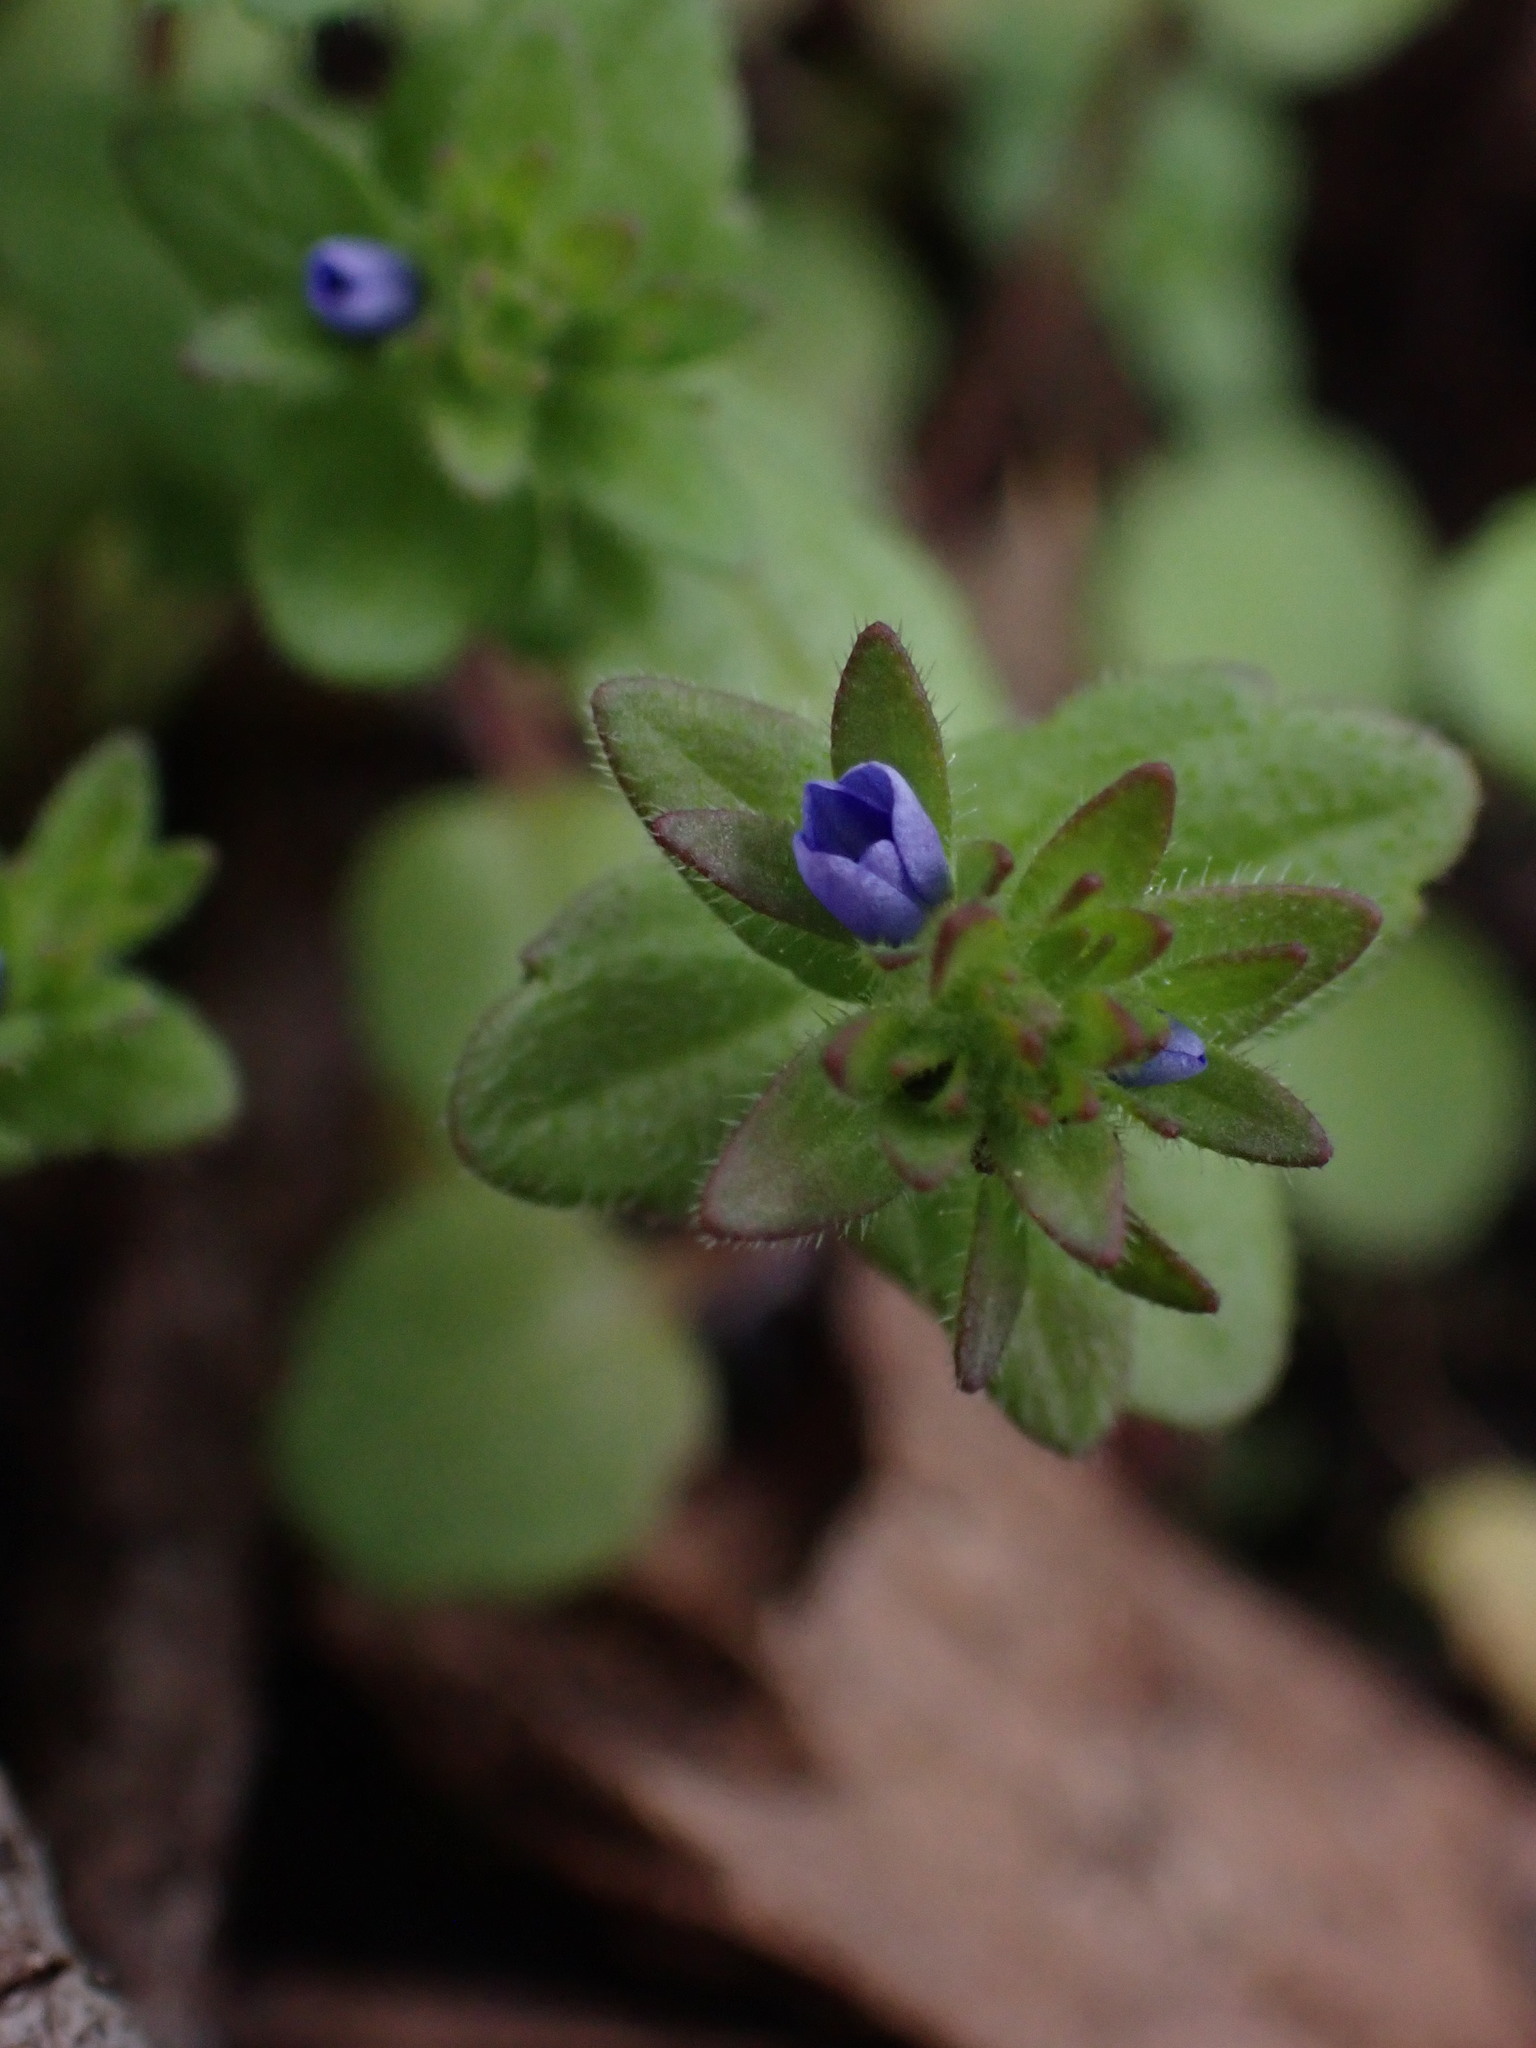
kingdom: Plantae
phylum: Tracheophyta
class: Magnoliopsida
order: Lamiales
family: Plantaginaceae
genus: Veronica
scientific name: Veronica arvensis
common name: Corn speedwell
